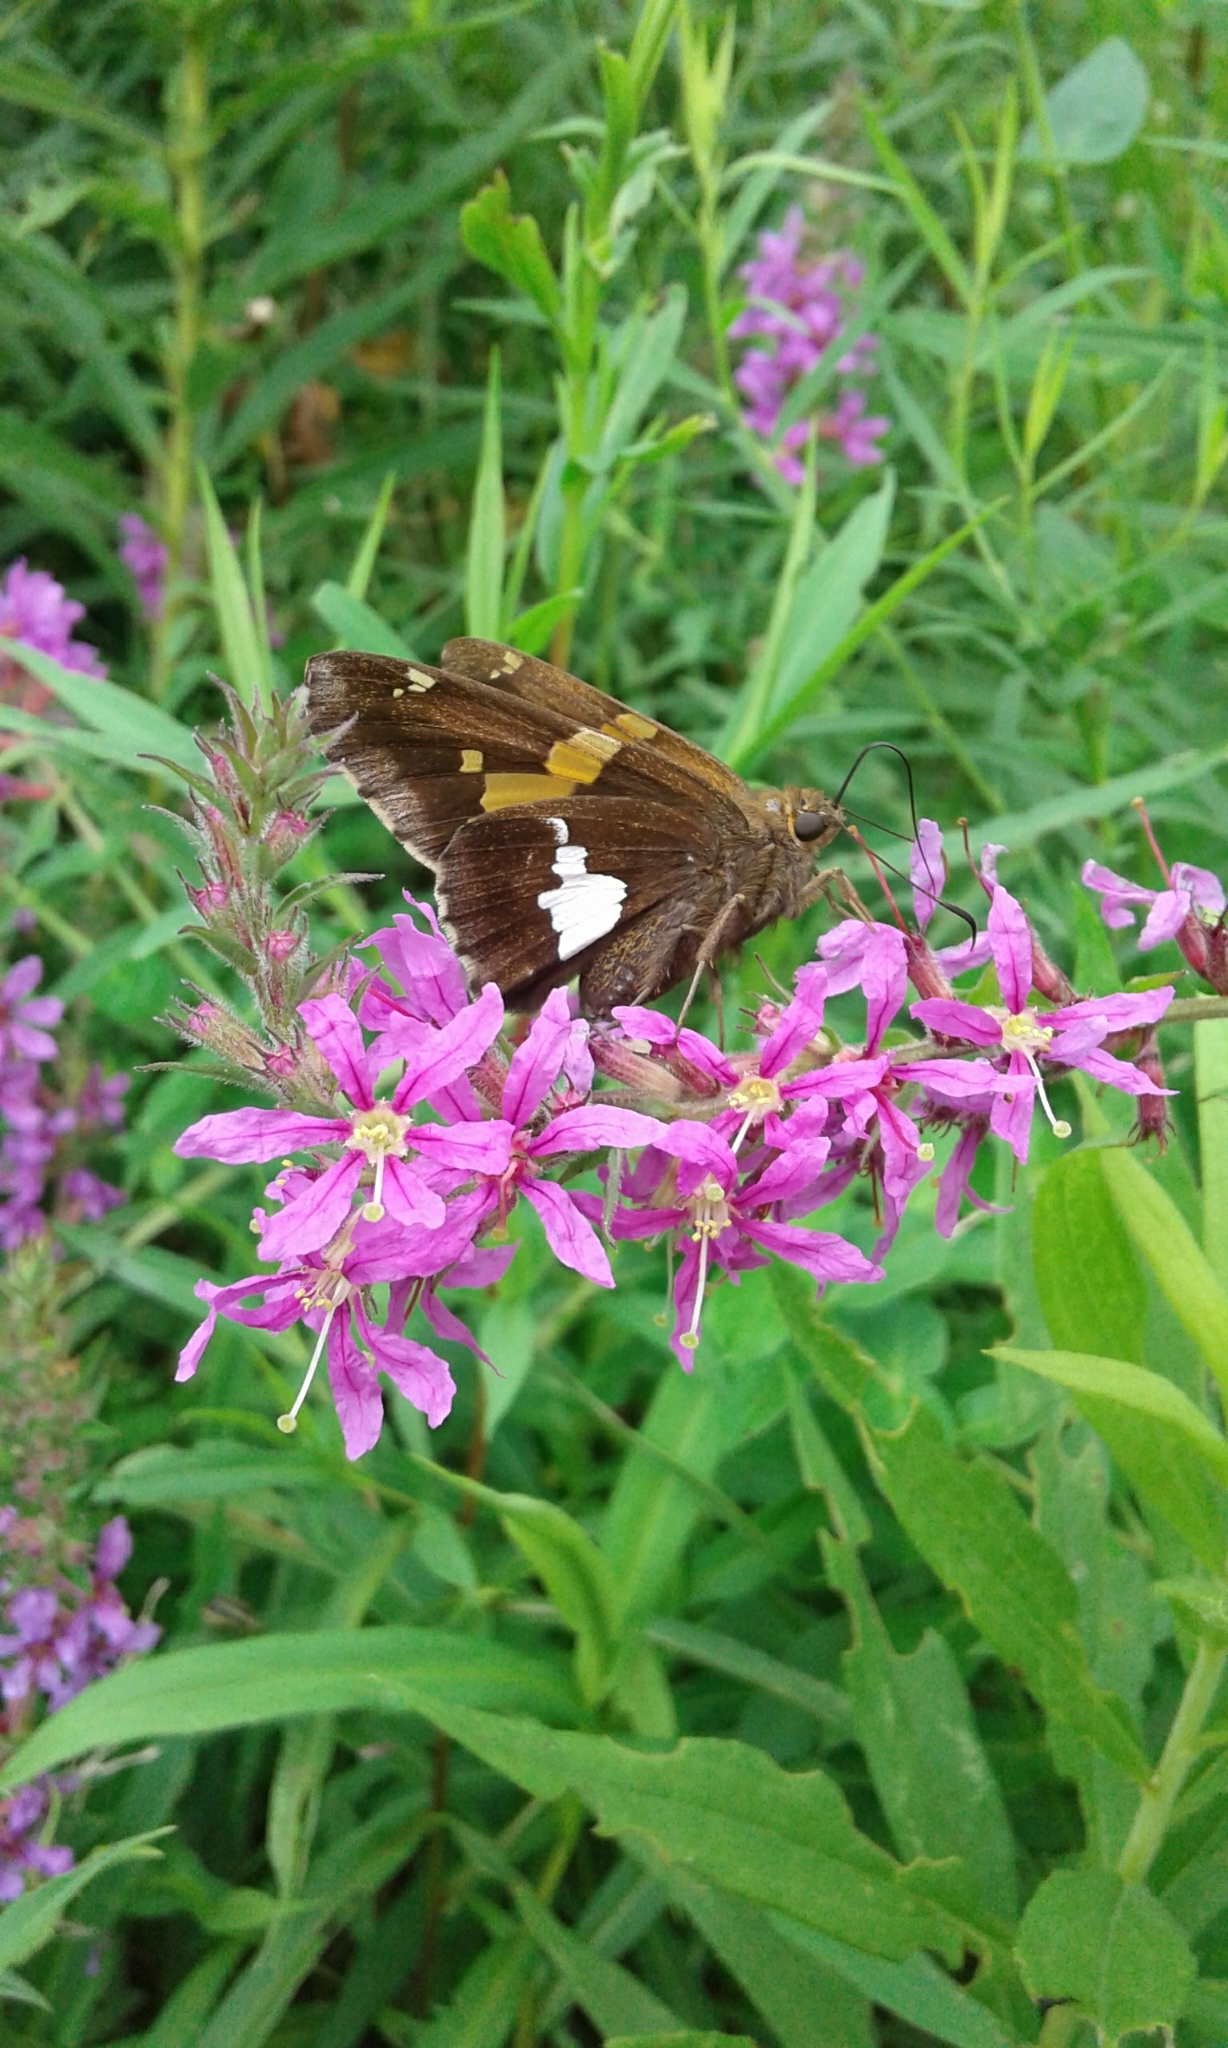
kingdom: Animalia
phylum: Arthropoda
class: Insecta
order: Lepidoptera
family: Hesperiidae
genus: Epargyreus
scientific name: Epargyreus clarus
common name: Silver-spotted skipper
